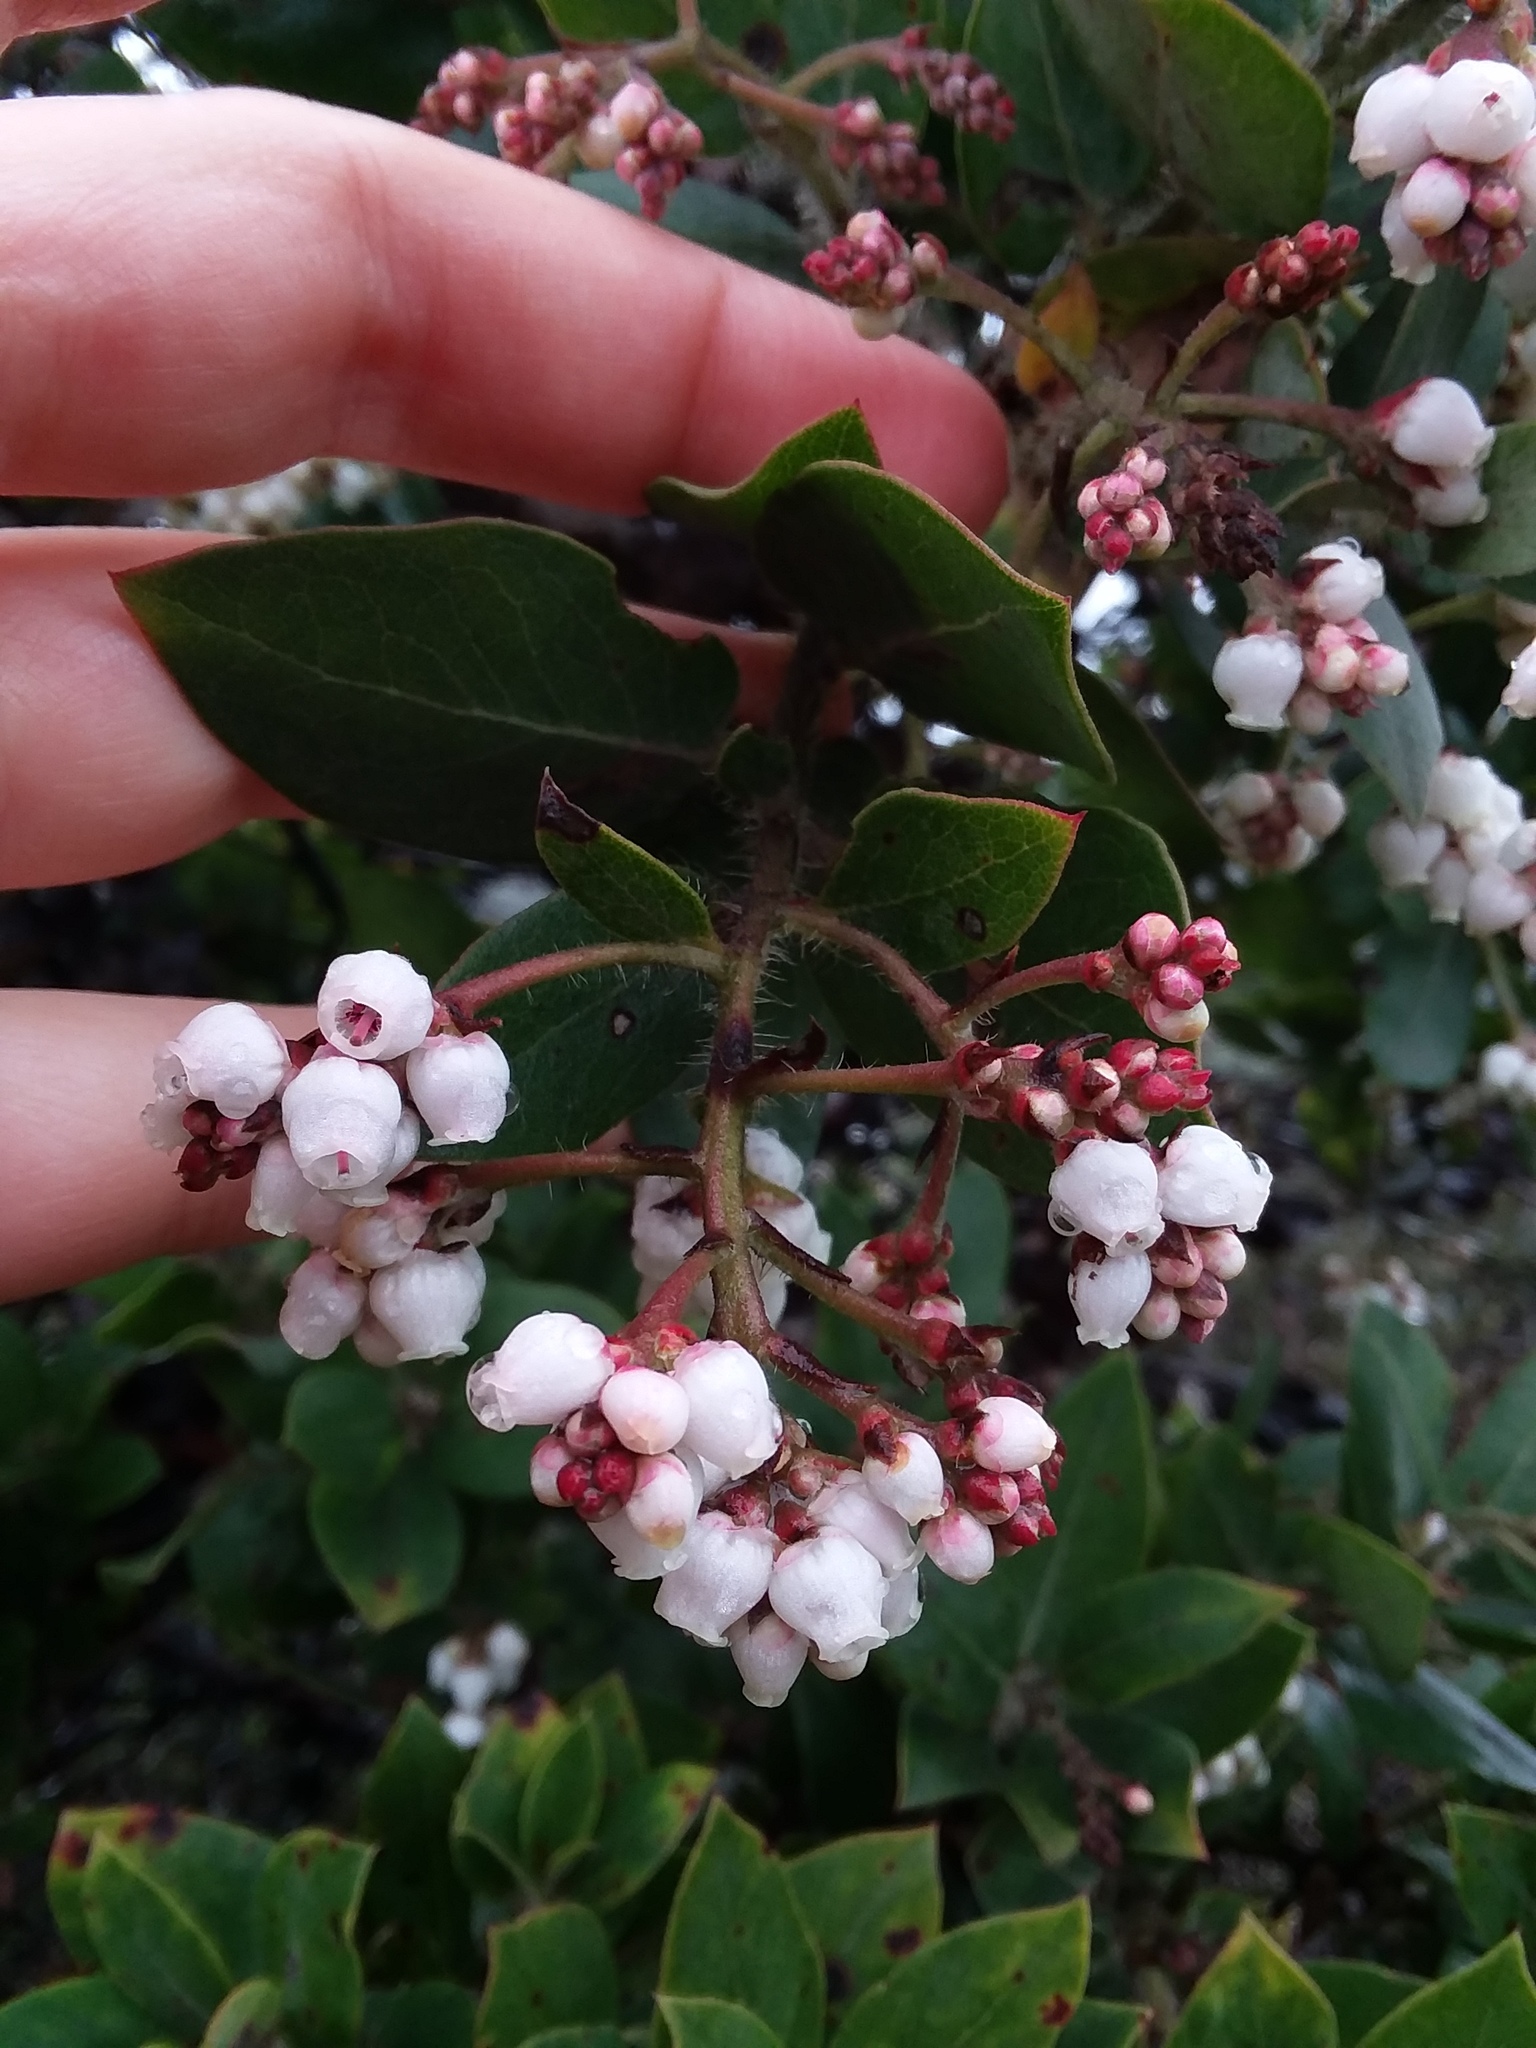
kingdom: Plantae
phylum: Tracheophyta
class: Magnoliopsida
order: Ericales
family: Ericaceae
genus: Arctostaphylos
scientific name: Arctostaphylos crustacea
